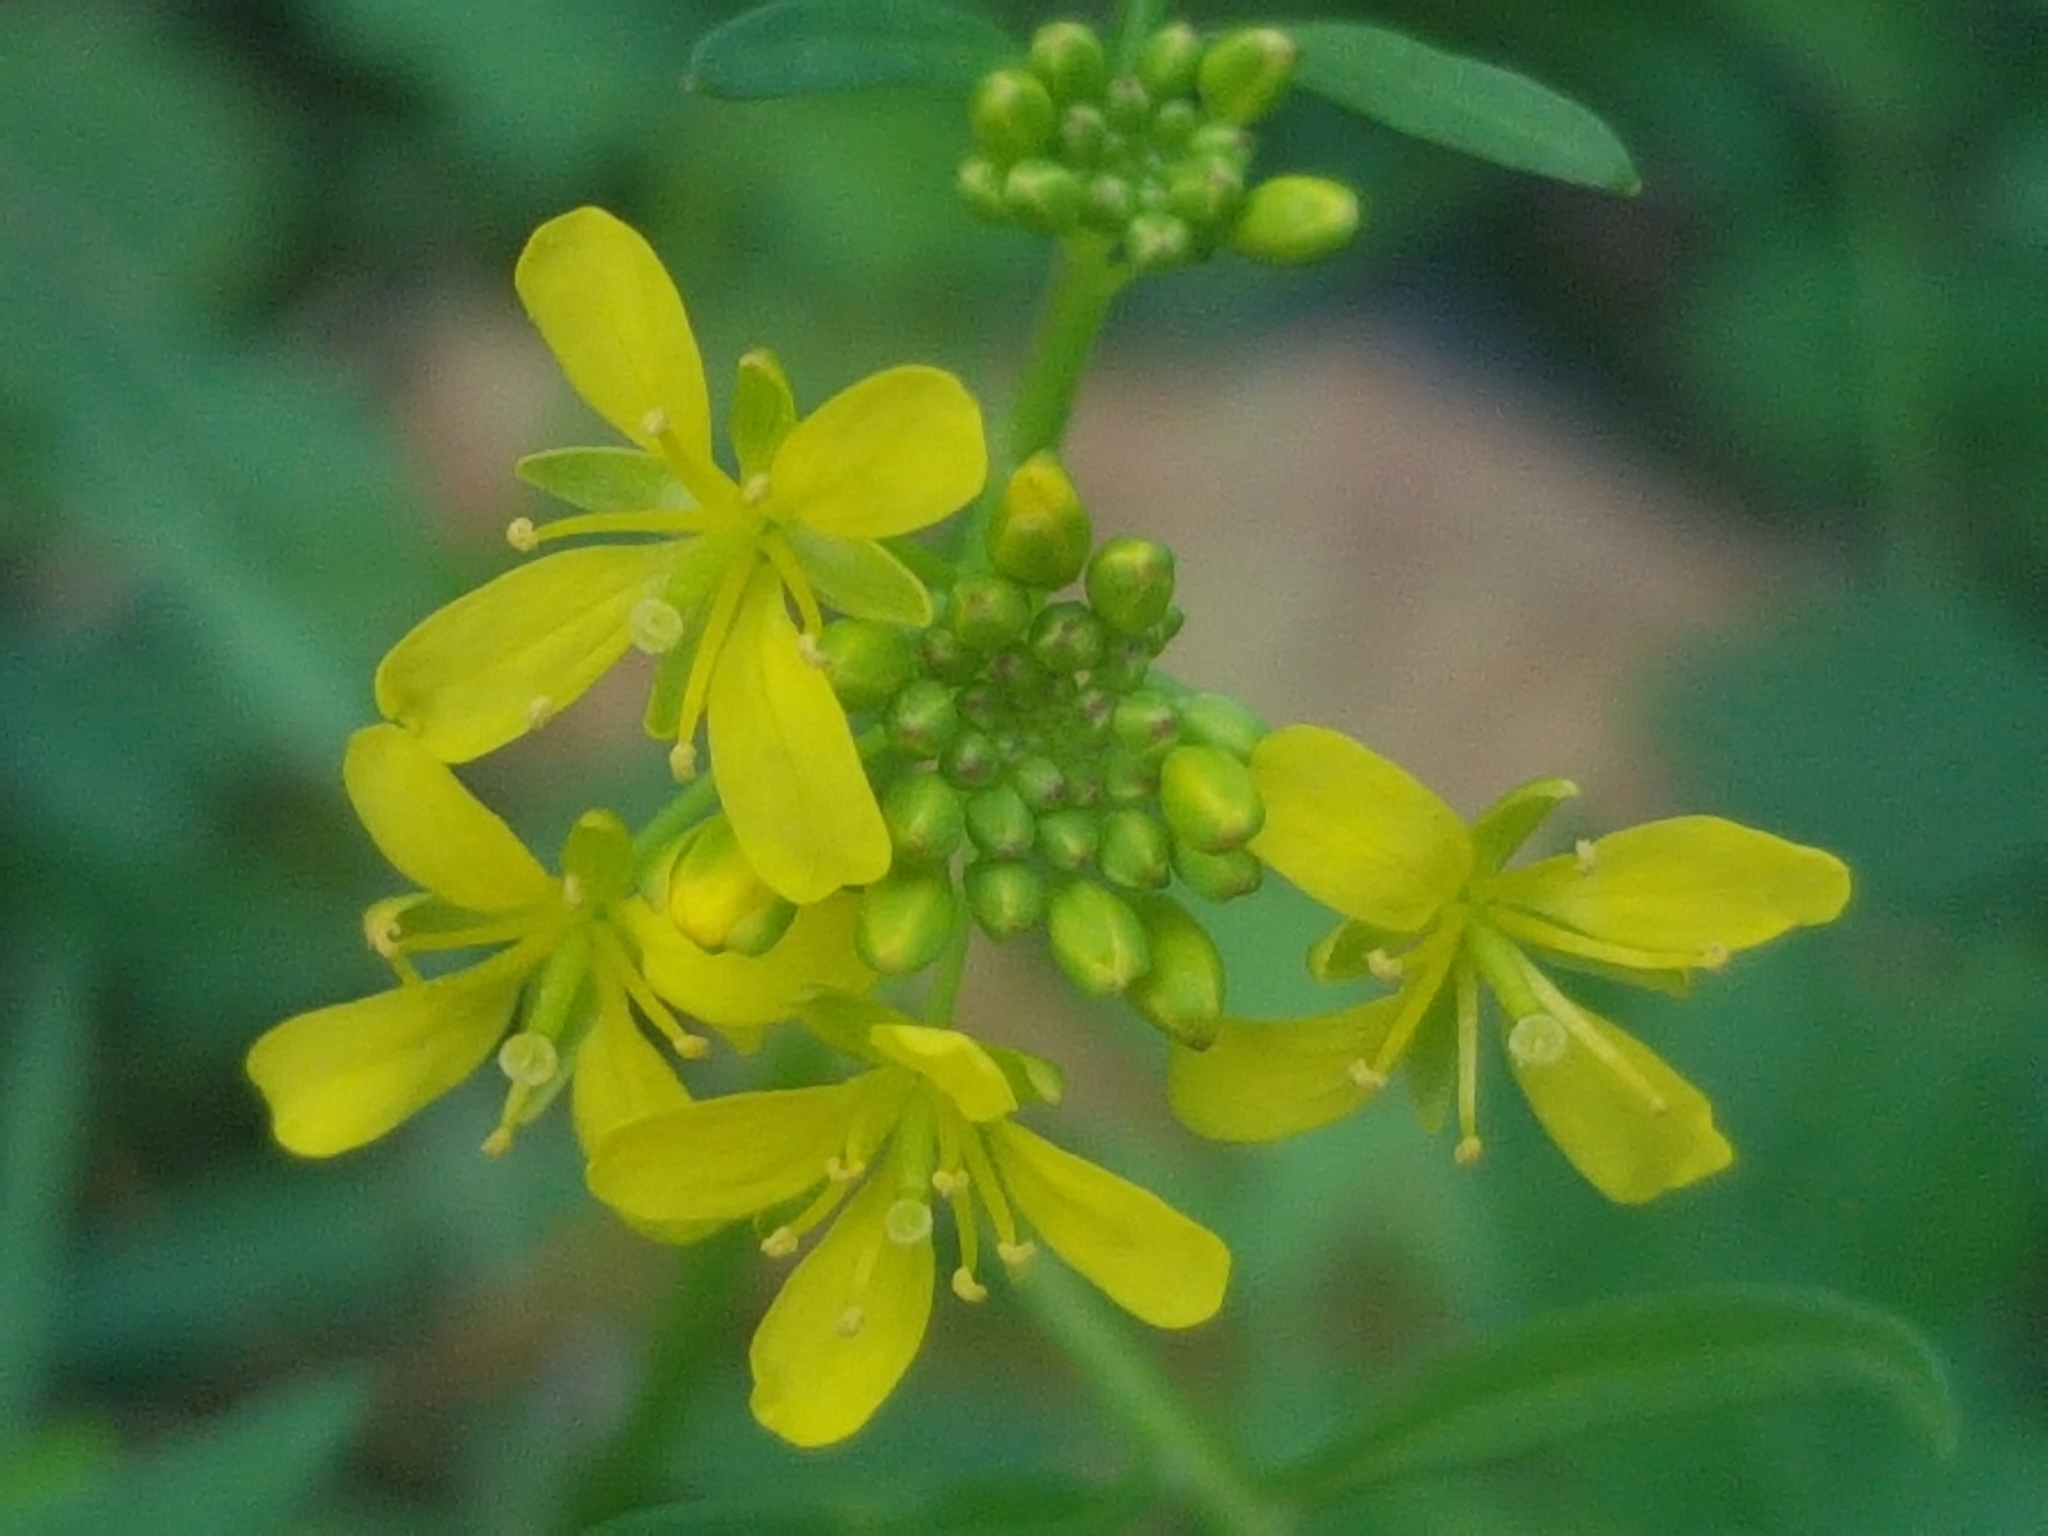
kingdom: Plantae
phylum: Tracheophyta
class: Magnoliopsida
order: Brassicales
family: Brassicaceae
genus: Rorippa
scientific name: Rorippa sylvestris
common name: Creeping yellowcress
